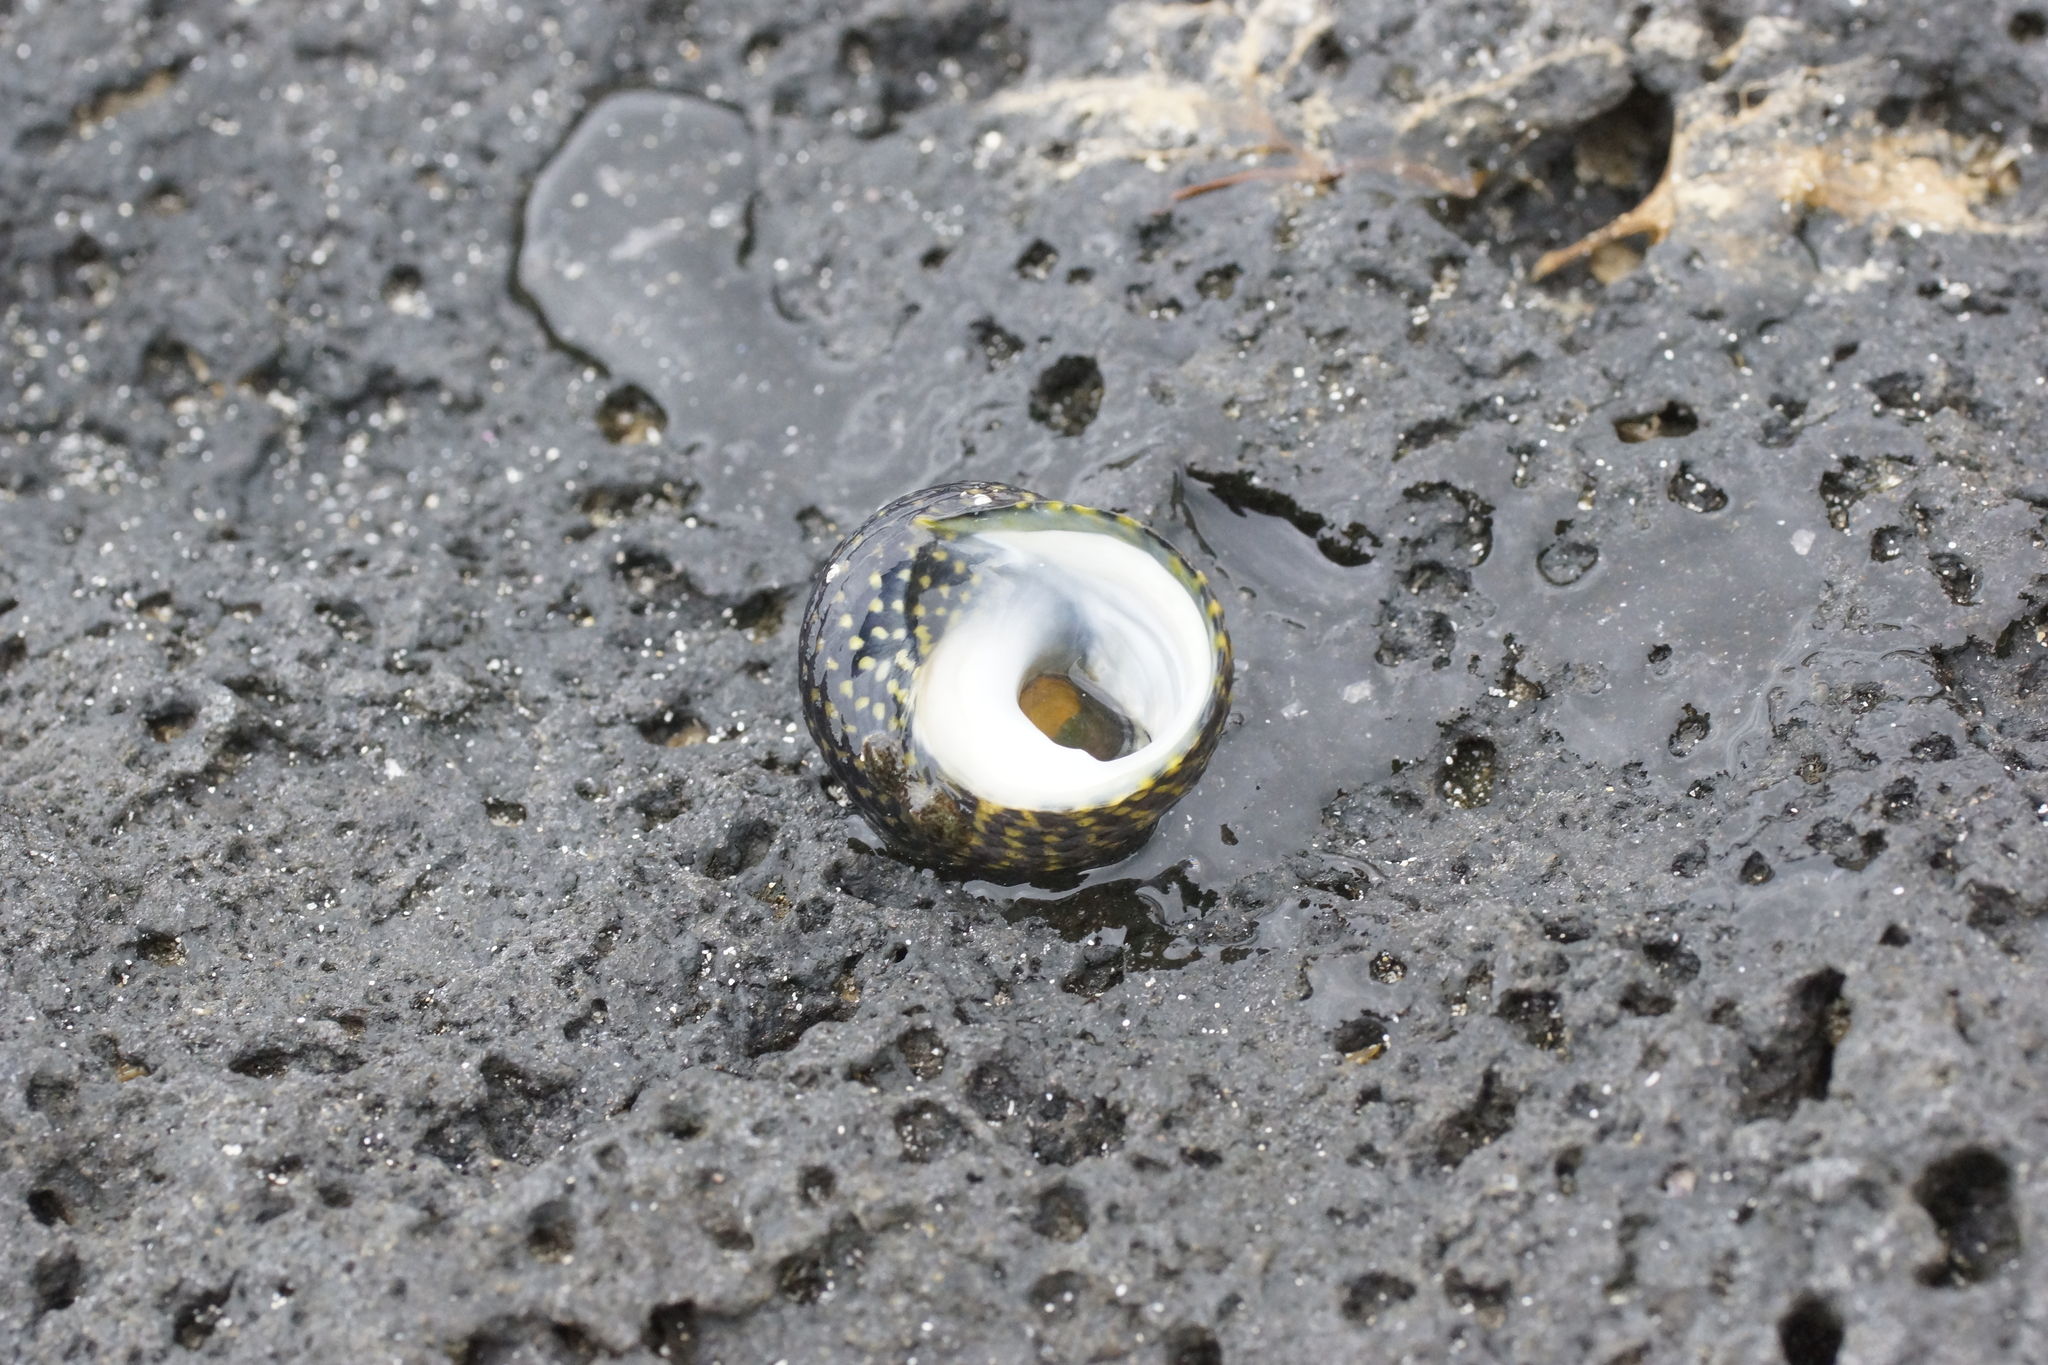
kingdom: Animalia
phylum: Mollusca
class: Gastropoda
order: Trochida
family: Trochidae
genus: Diloma
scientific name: Diloma concameratum
